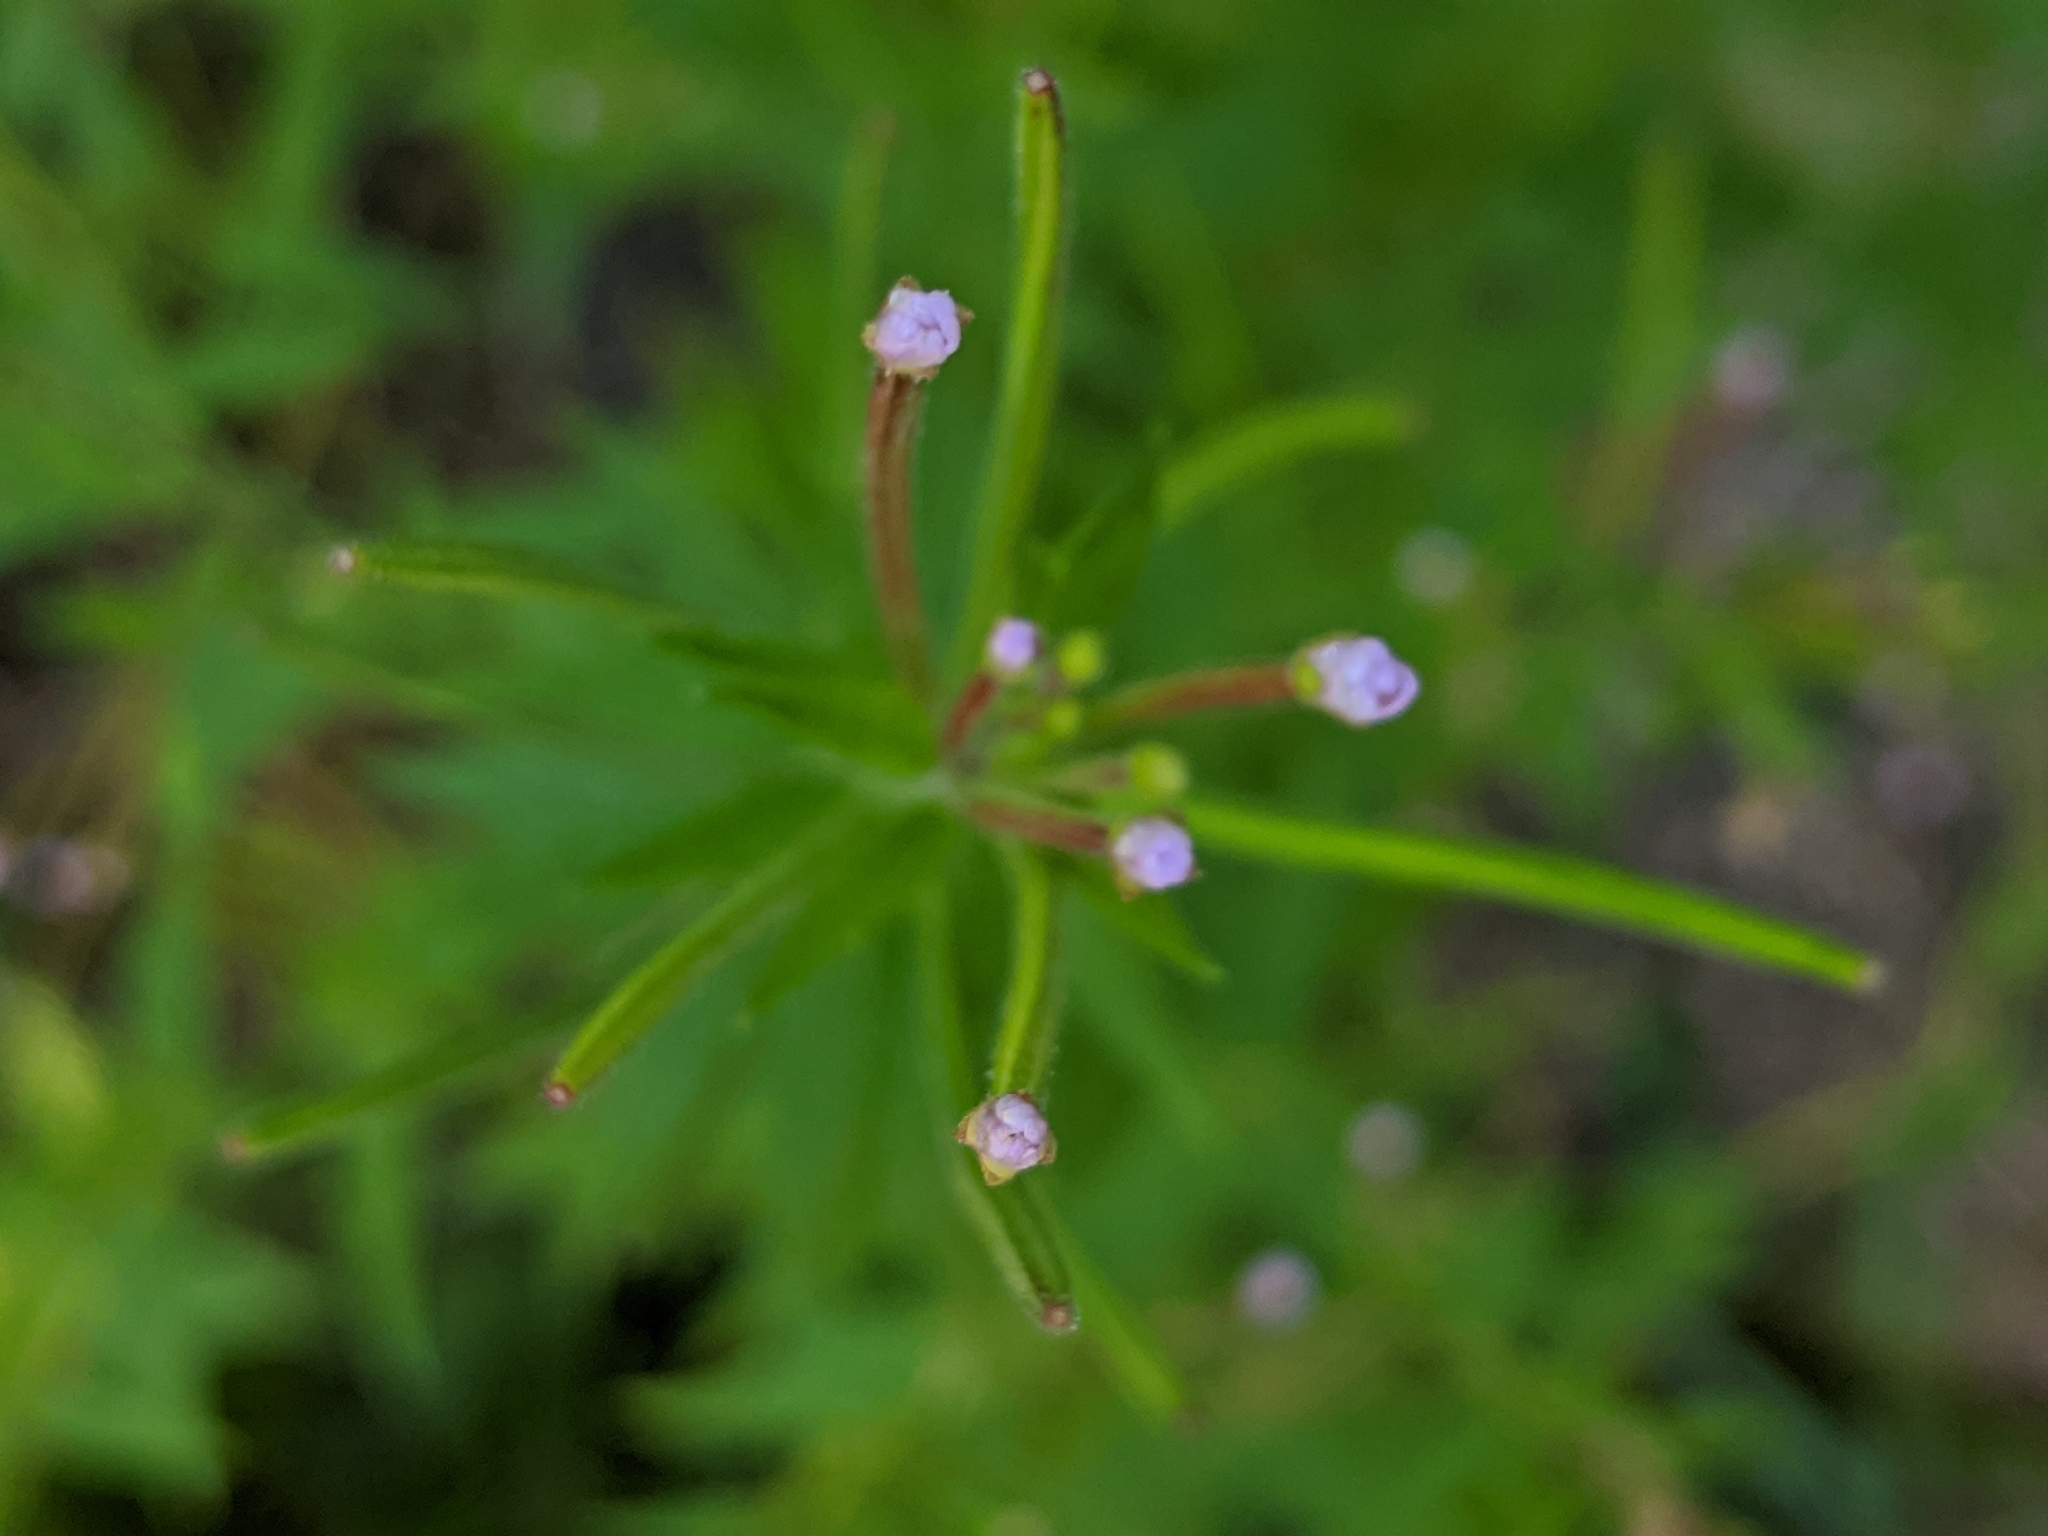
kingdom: Plantae
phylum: Tracheophyta
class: Magnoliopsida
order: Myrtales
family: Onagraceae
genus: Epilobium
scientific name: Epilobium coloratum
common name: Bronze willowherb
